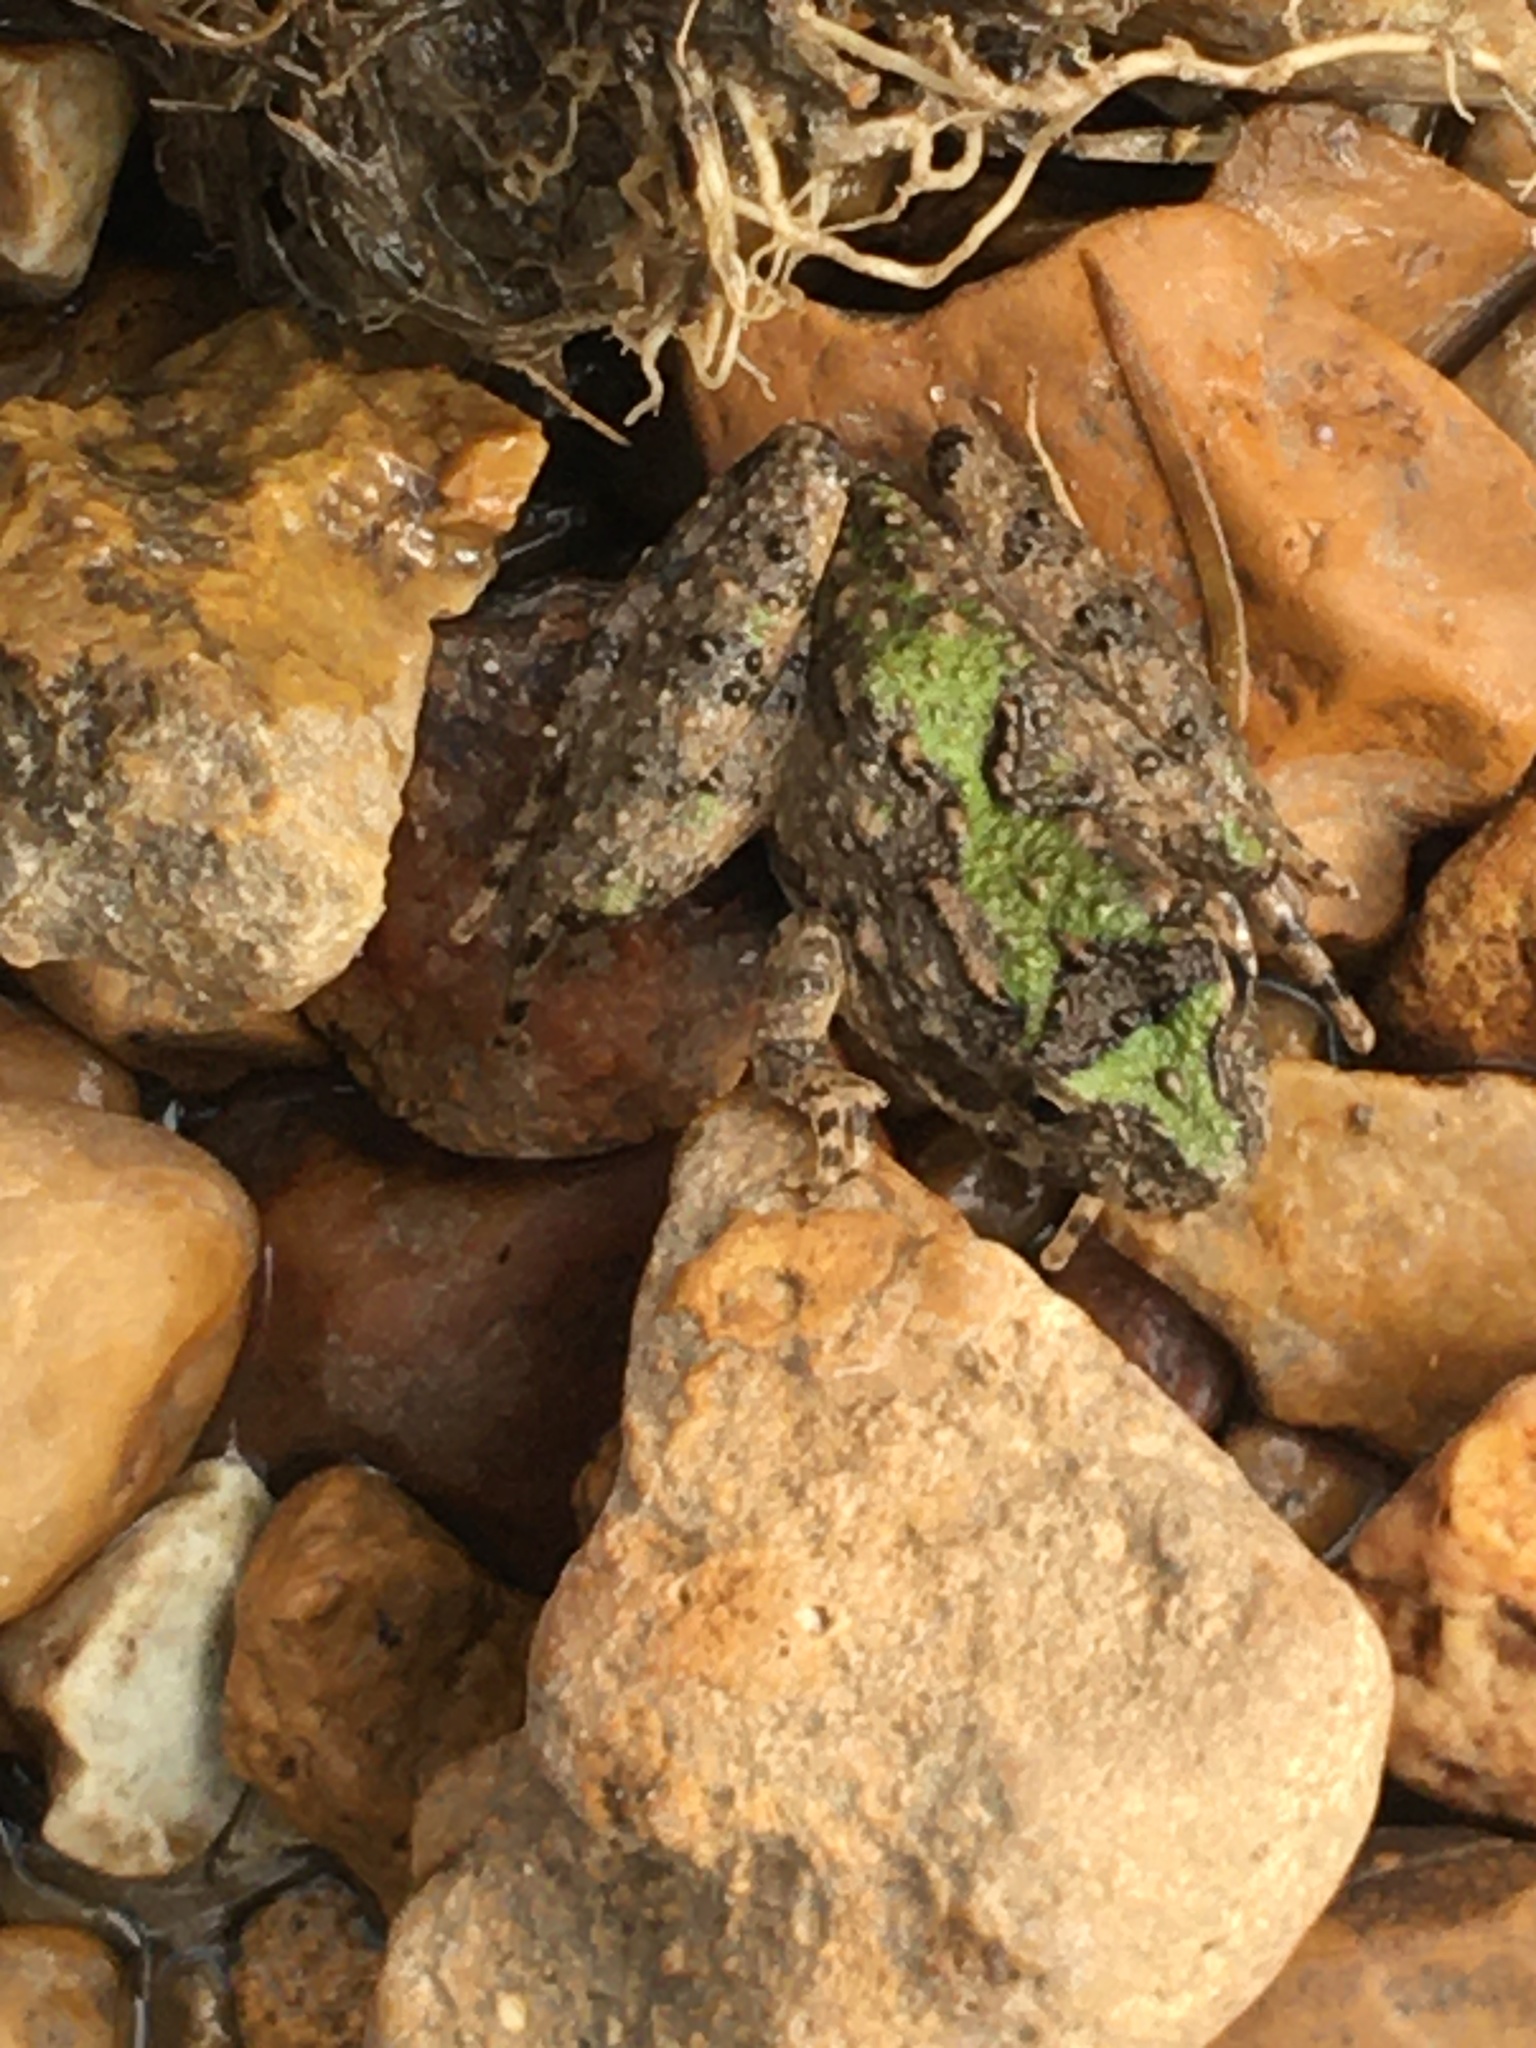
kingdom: Animalia
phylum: Chordata
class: Amphibia
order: Anura
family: Hylidae
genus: Acris
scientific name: Acris blanchardi
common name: Blanchard's cricket frog
